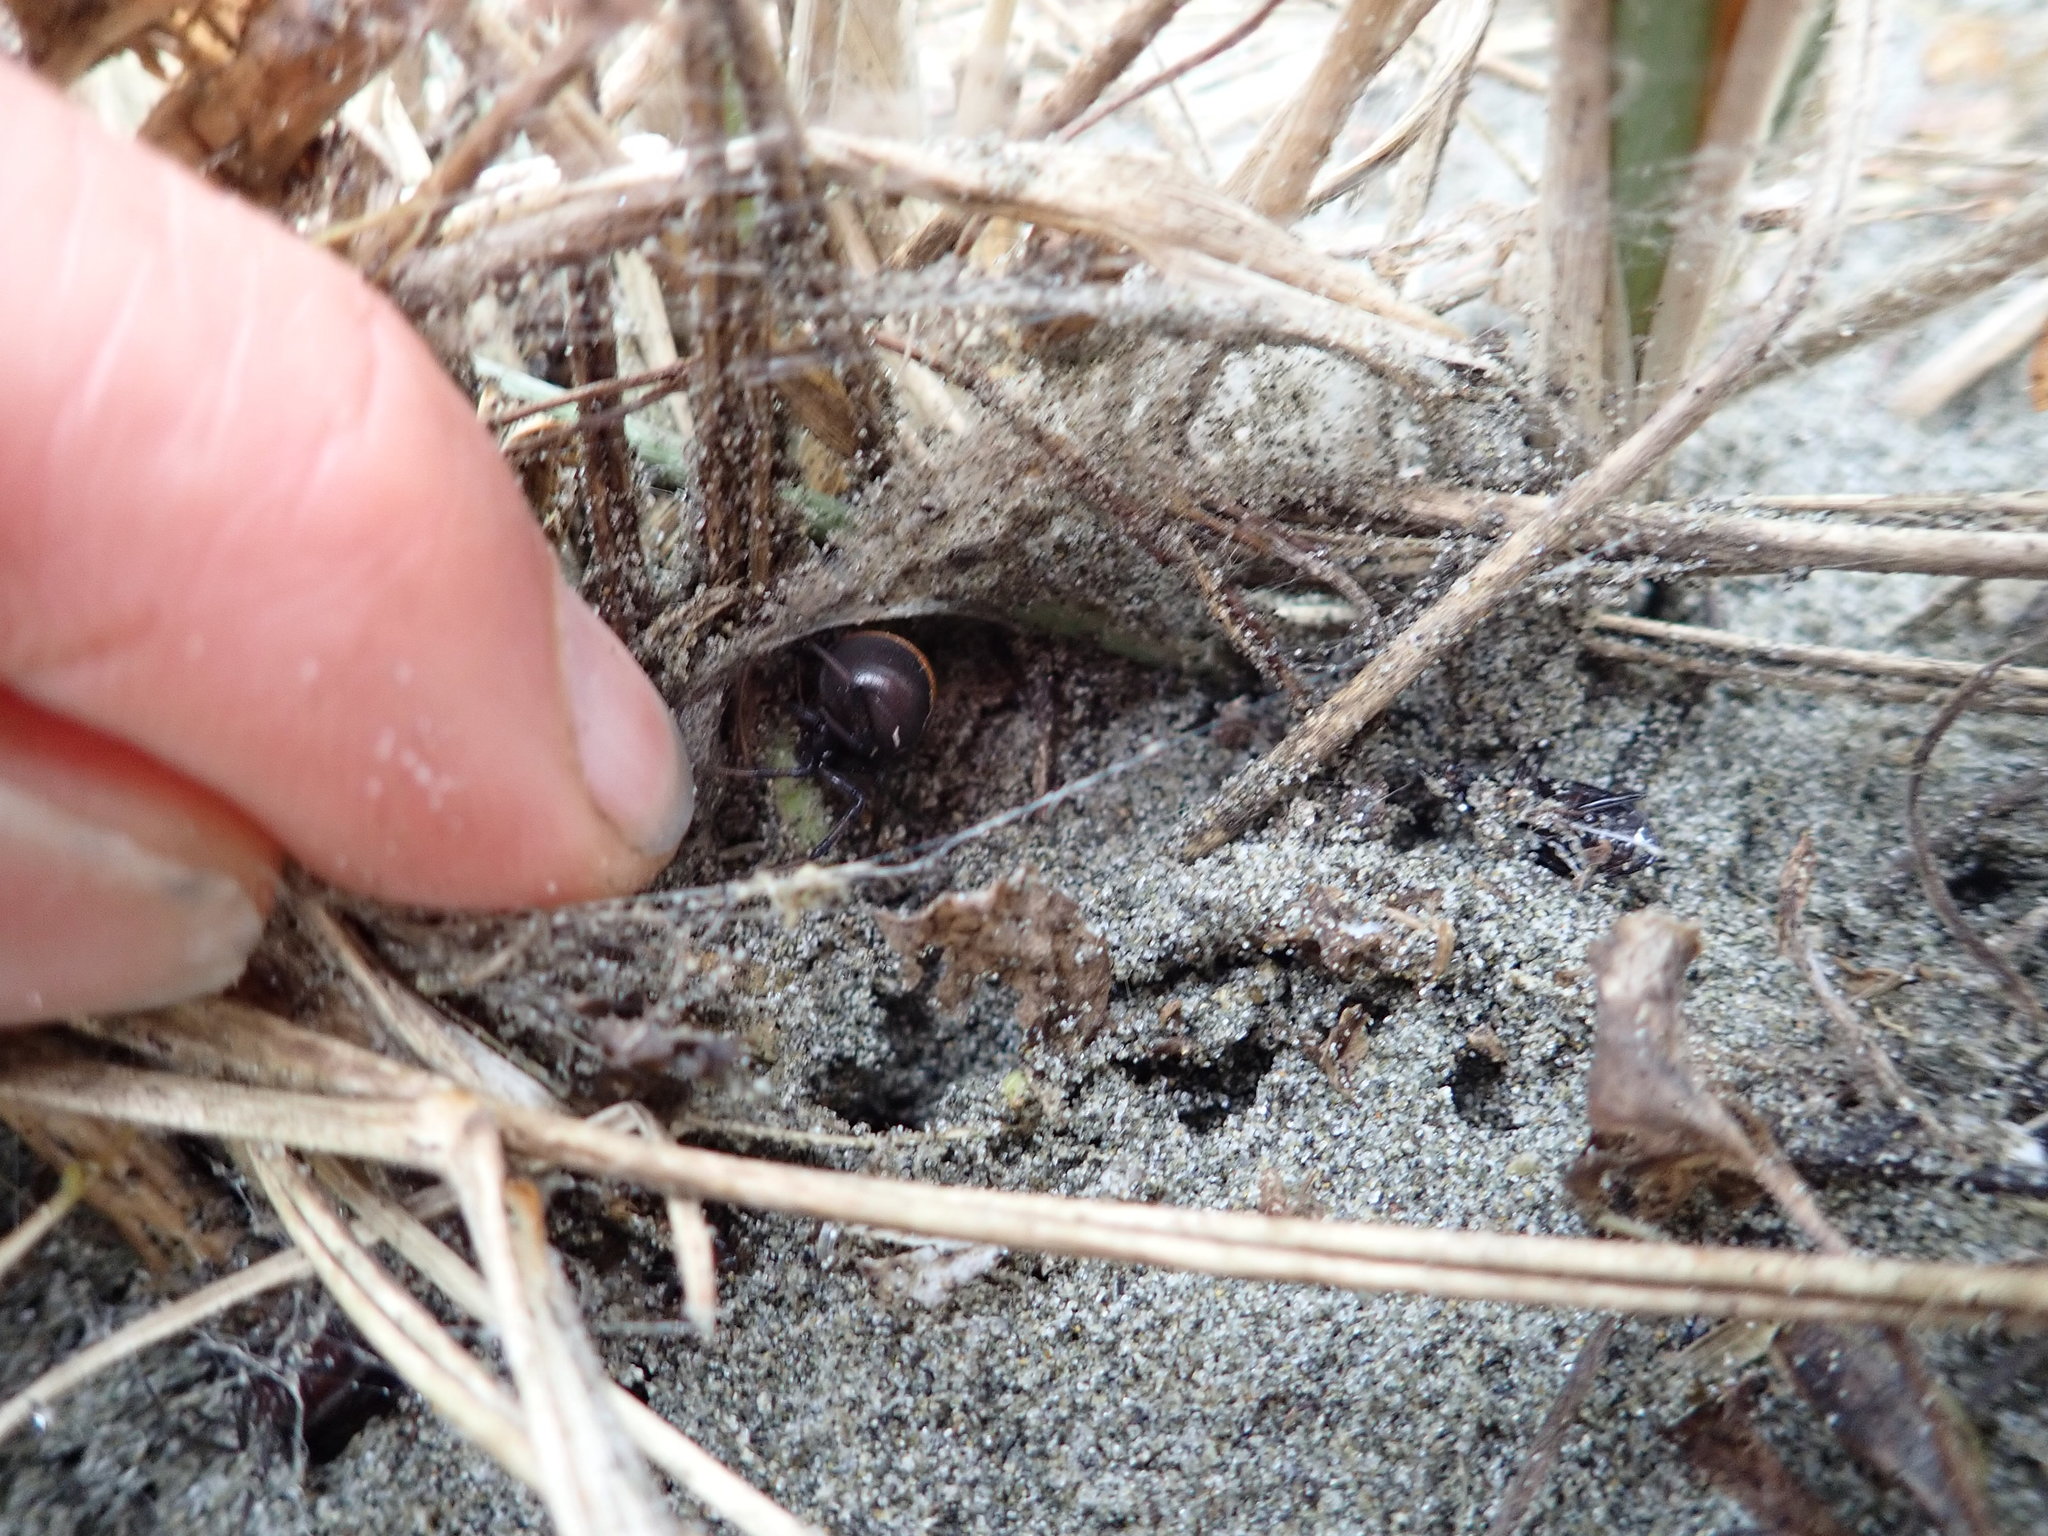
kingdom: Animalia
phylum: Arthropoda
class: Arachnida
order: Araneae
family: Theridiidae
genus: Latrodectus
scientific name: Latrodectus katipo
